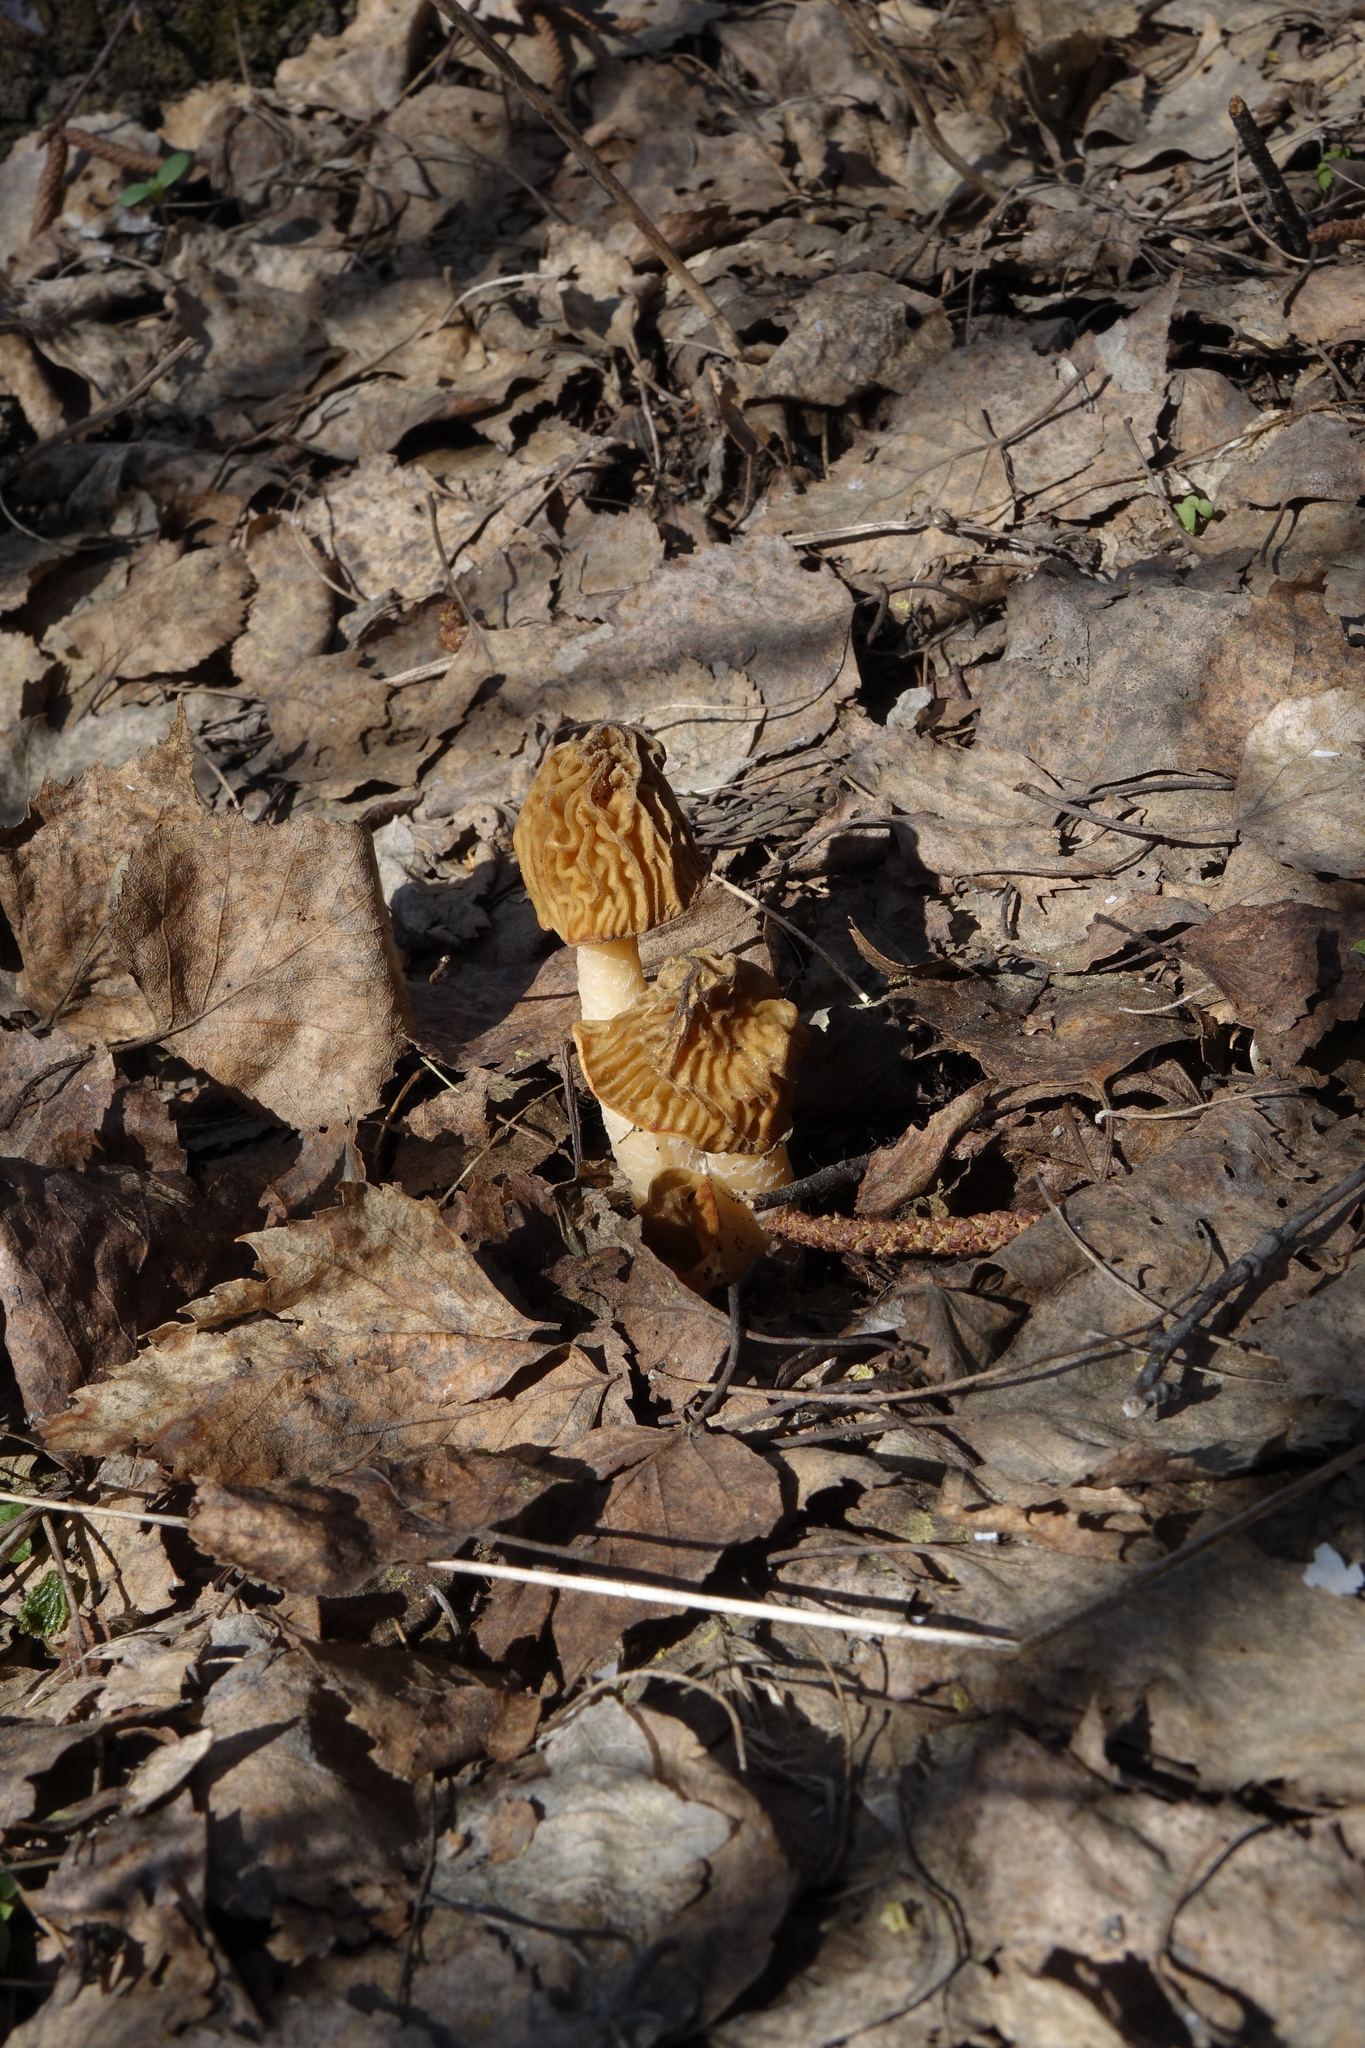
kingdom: Fungi
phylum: Ascomycota
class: Pezizomycetes
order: Pezizales
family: Morchellaceae
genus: Verpa
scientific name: Verpa bohemica
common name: Wrinkled thimble morel
